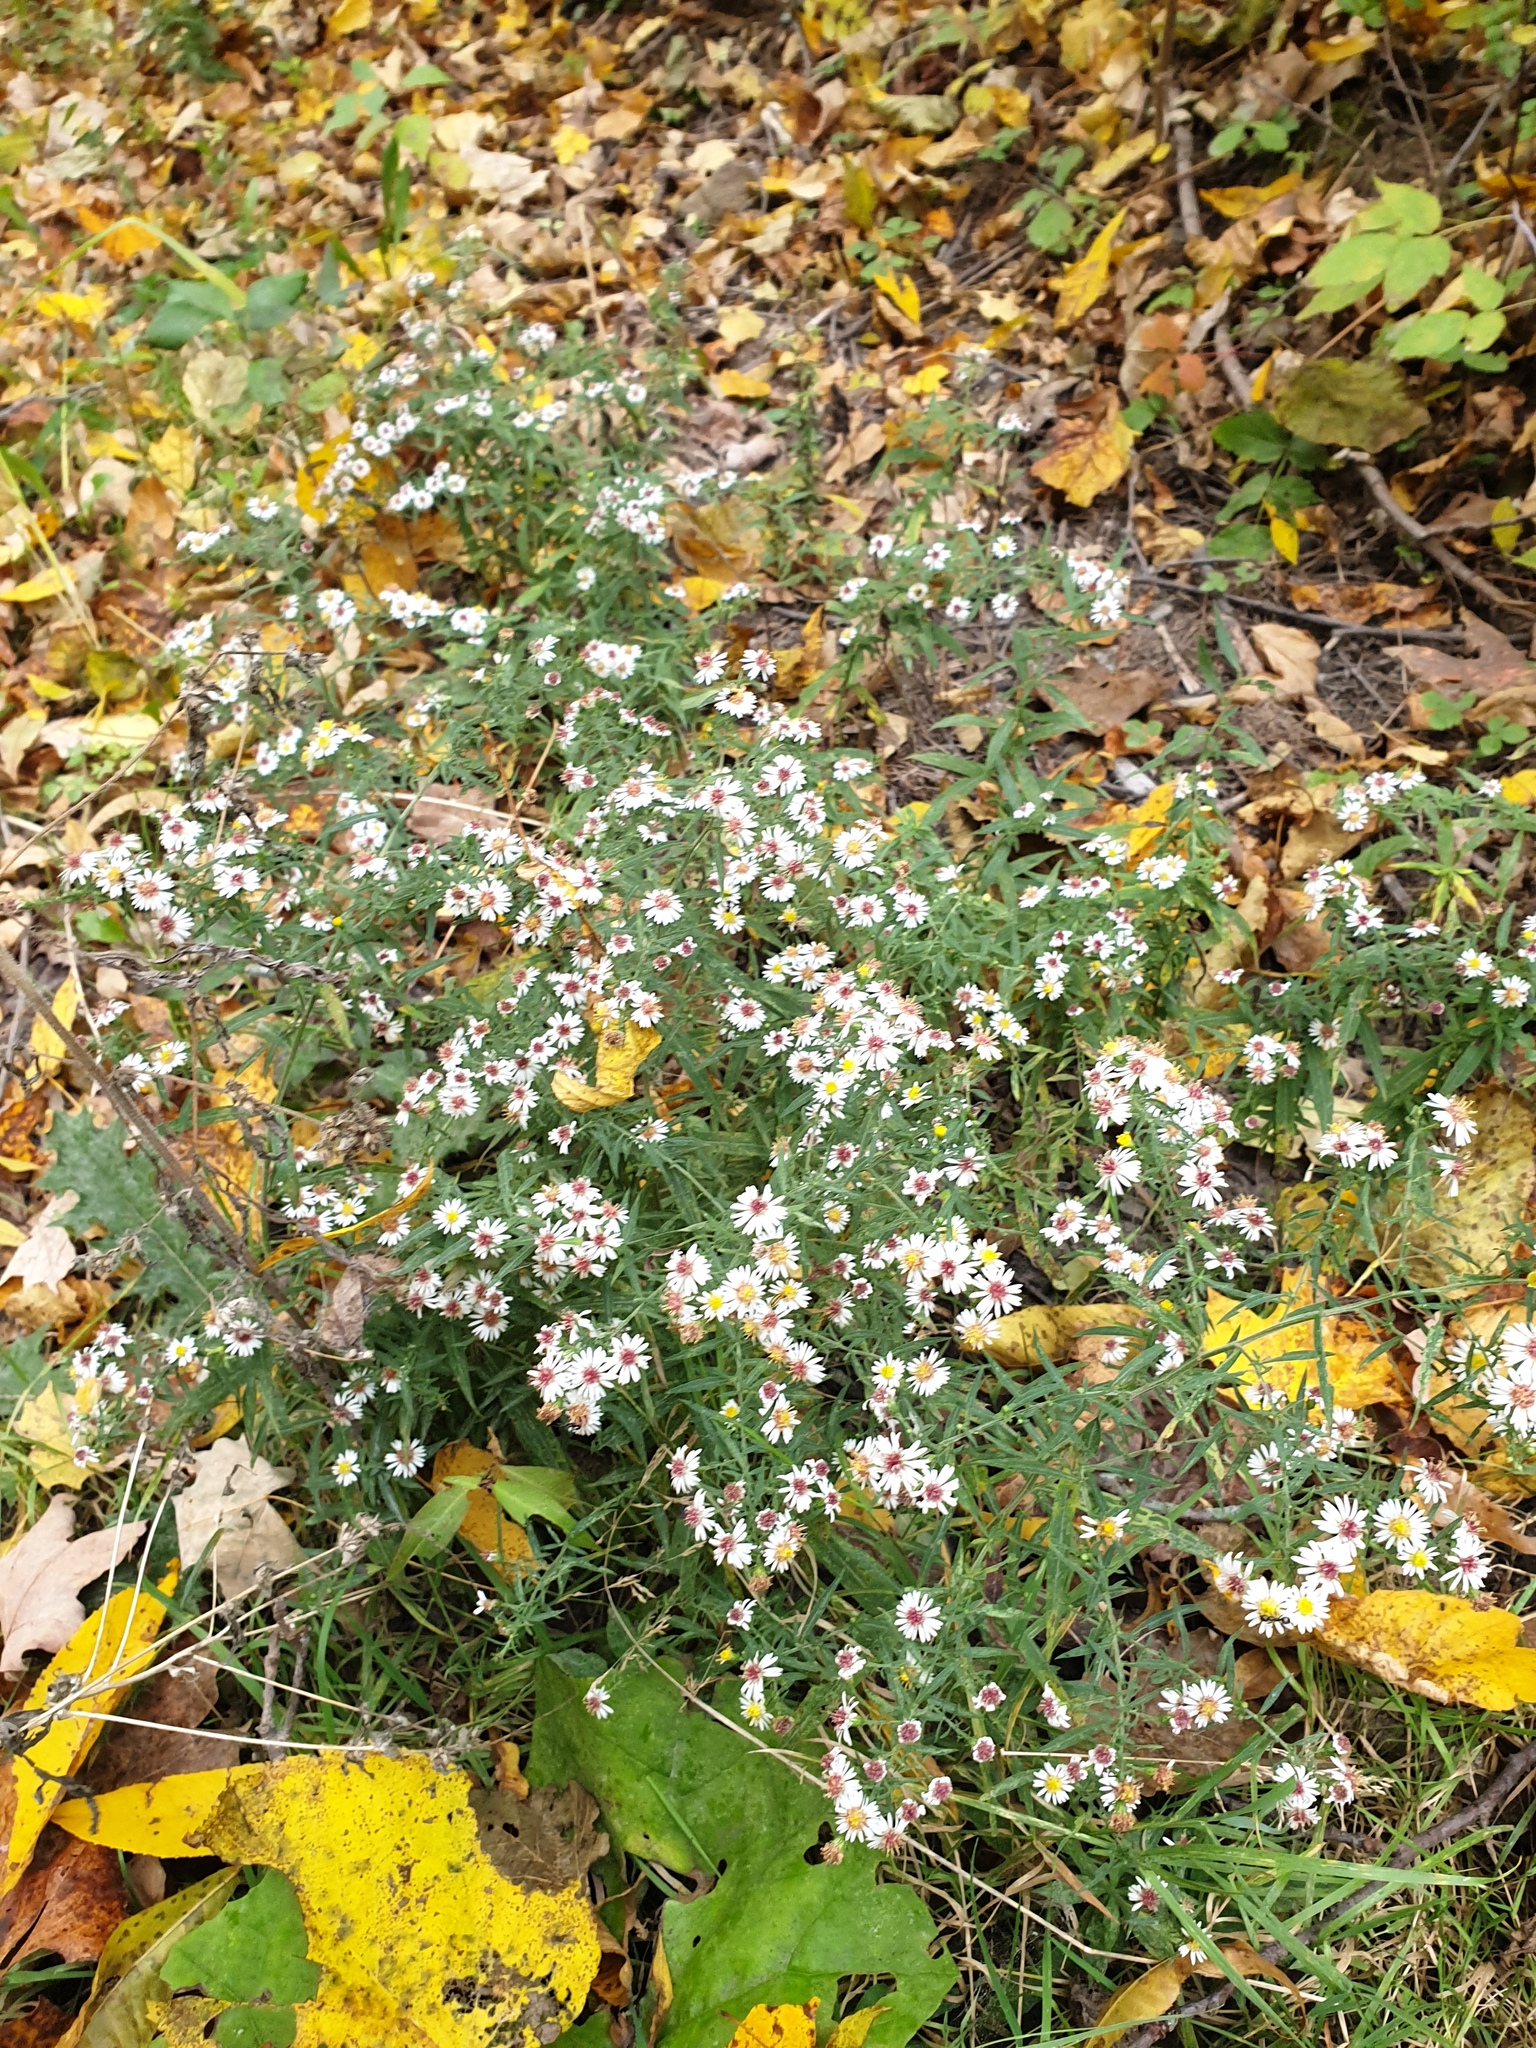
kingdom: Plantae
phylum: Tracheophyta
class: Magnoliopsida
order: Asterales
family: Asteraceae
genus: Symphyotrichum
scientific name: Symphyotrichum ontarionis
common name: Bottomland aster
